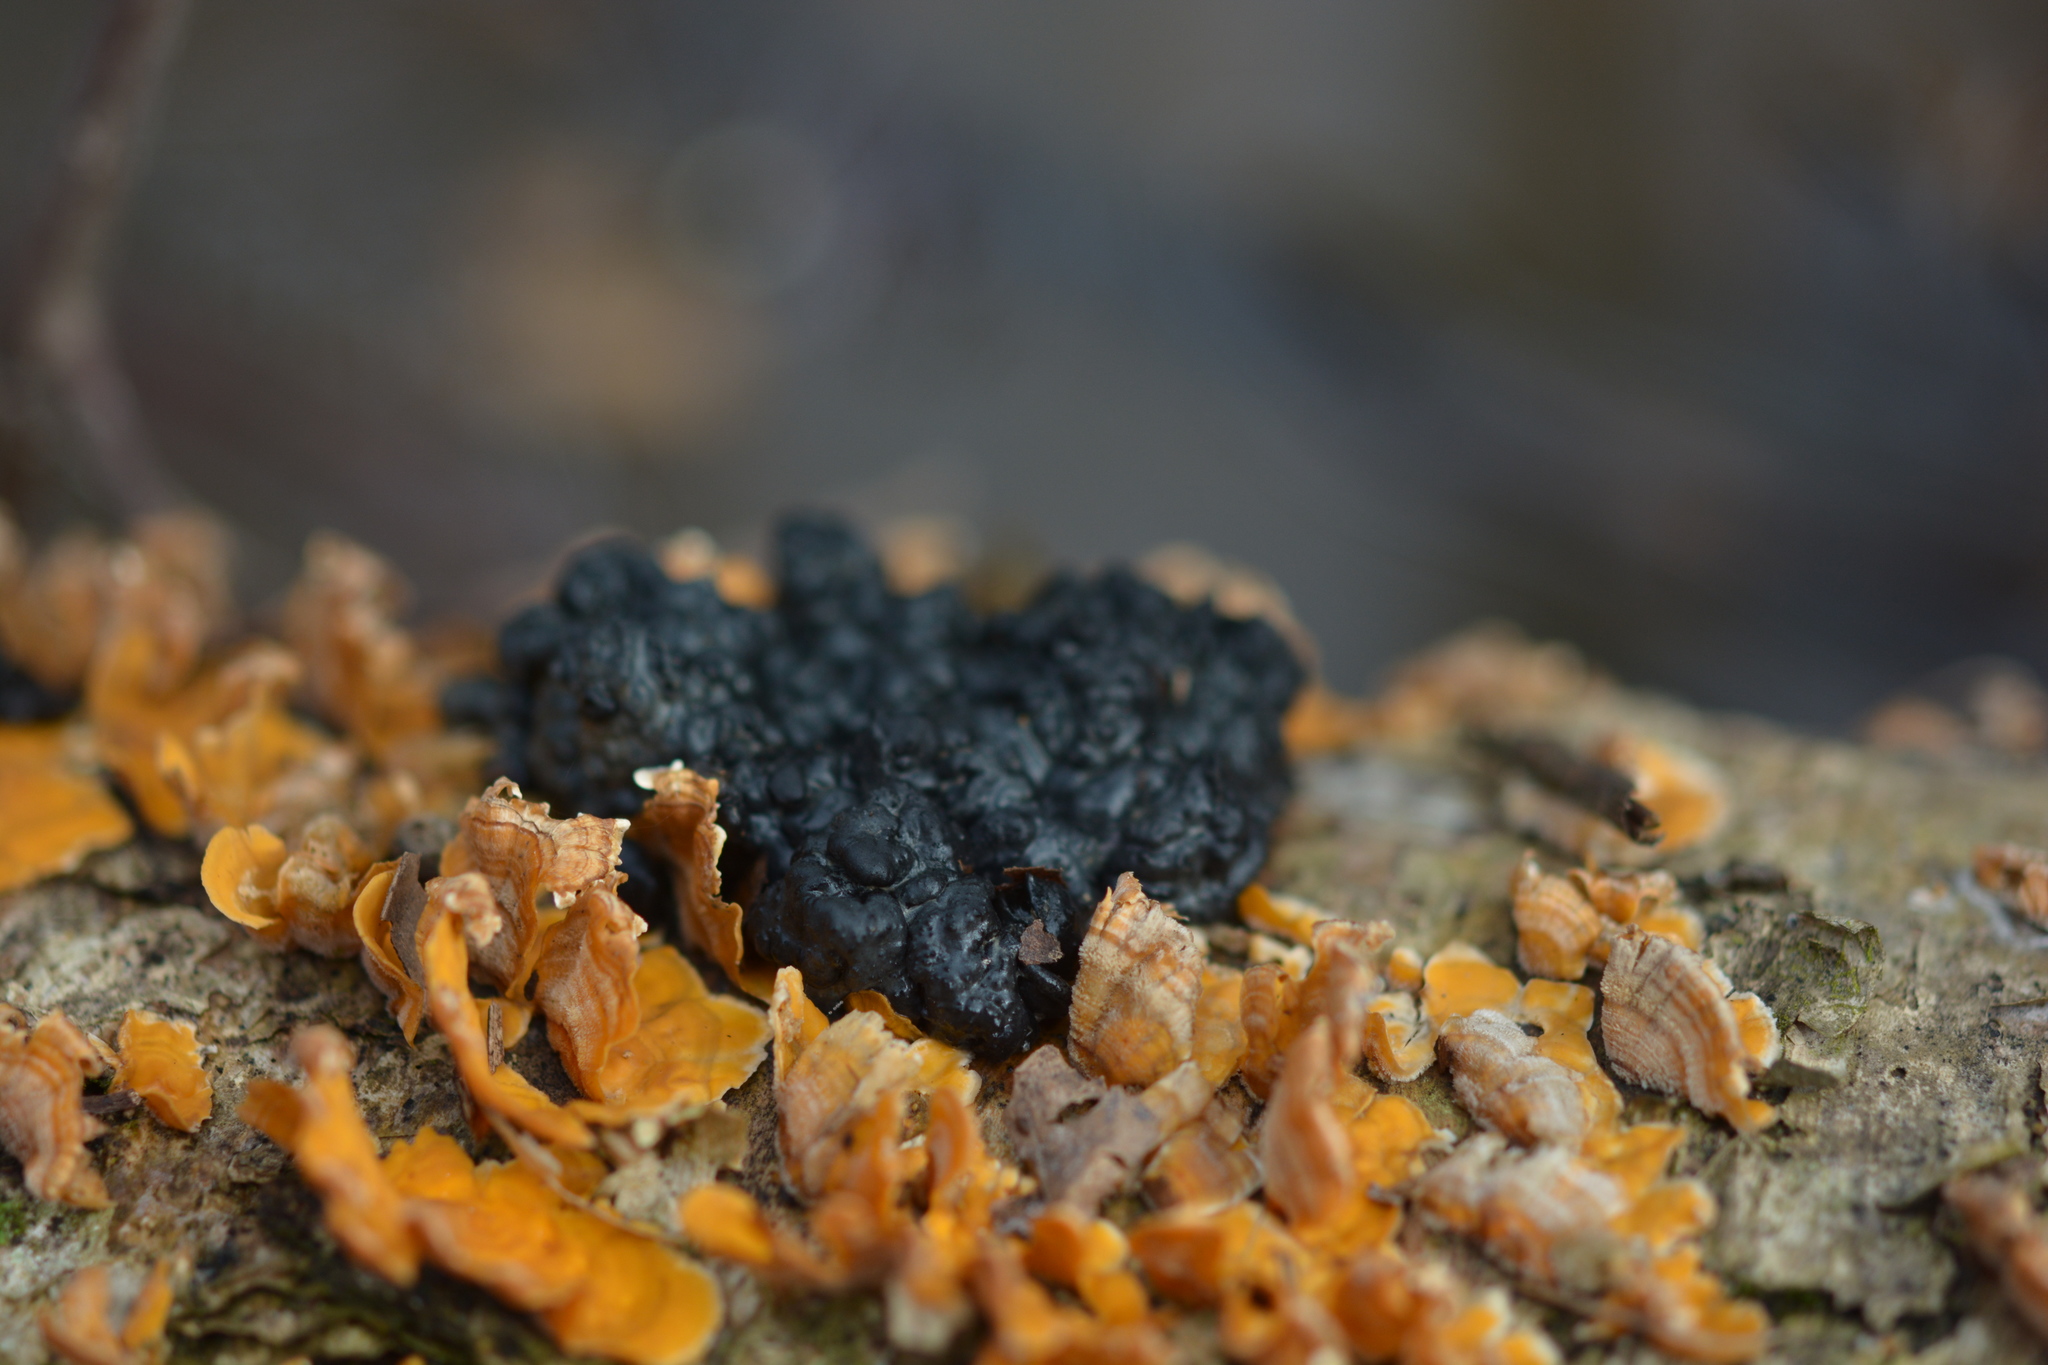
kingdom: Fungi
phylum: Basidiomycota
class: Agaricomycetes
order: Auriculariales
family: Auriculariaceae
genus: Exidia
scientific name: Exidia glandulosa
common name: Witches' butter
